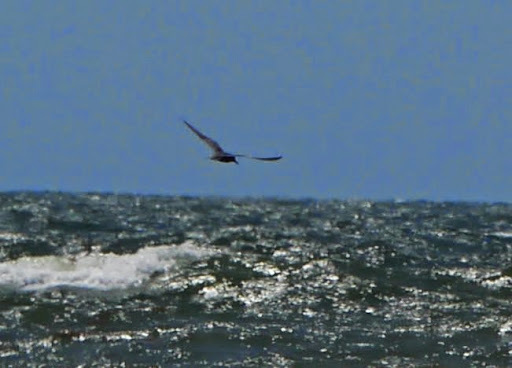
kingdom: Animalia
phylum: Chordata
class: Aves
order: Charadriiformes
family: Laridae
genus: Chlidonias
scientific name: Chlidonias niger
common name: Black tern
